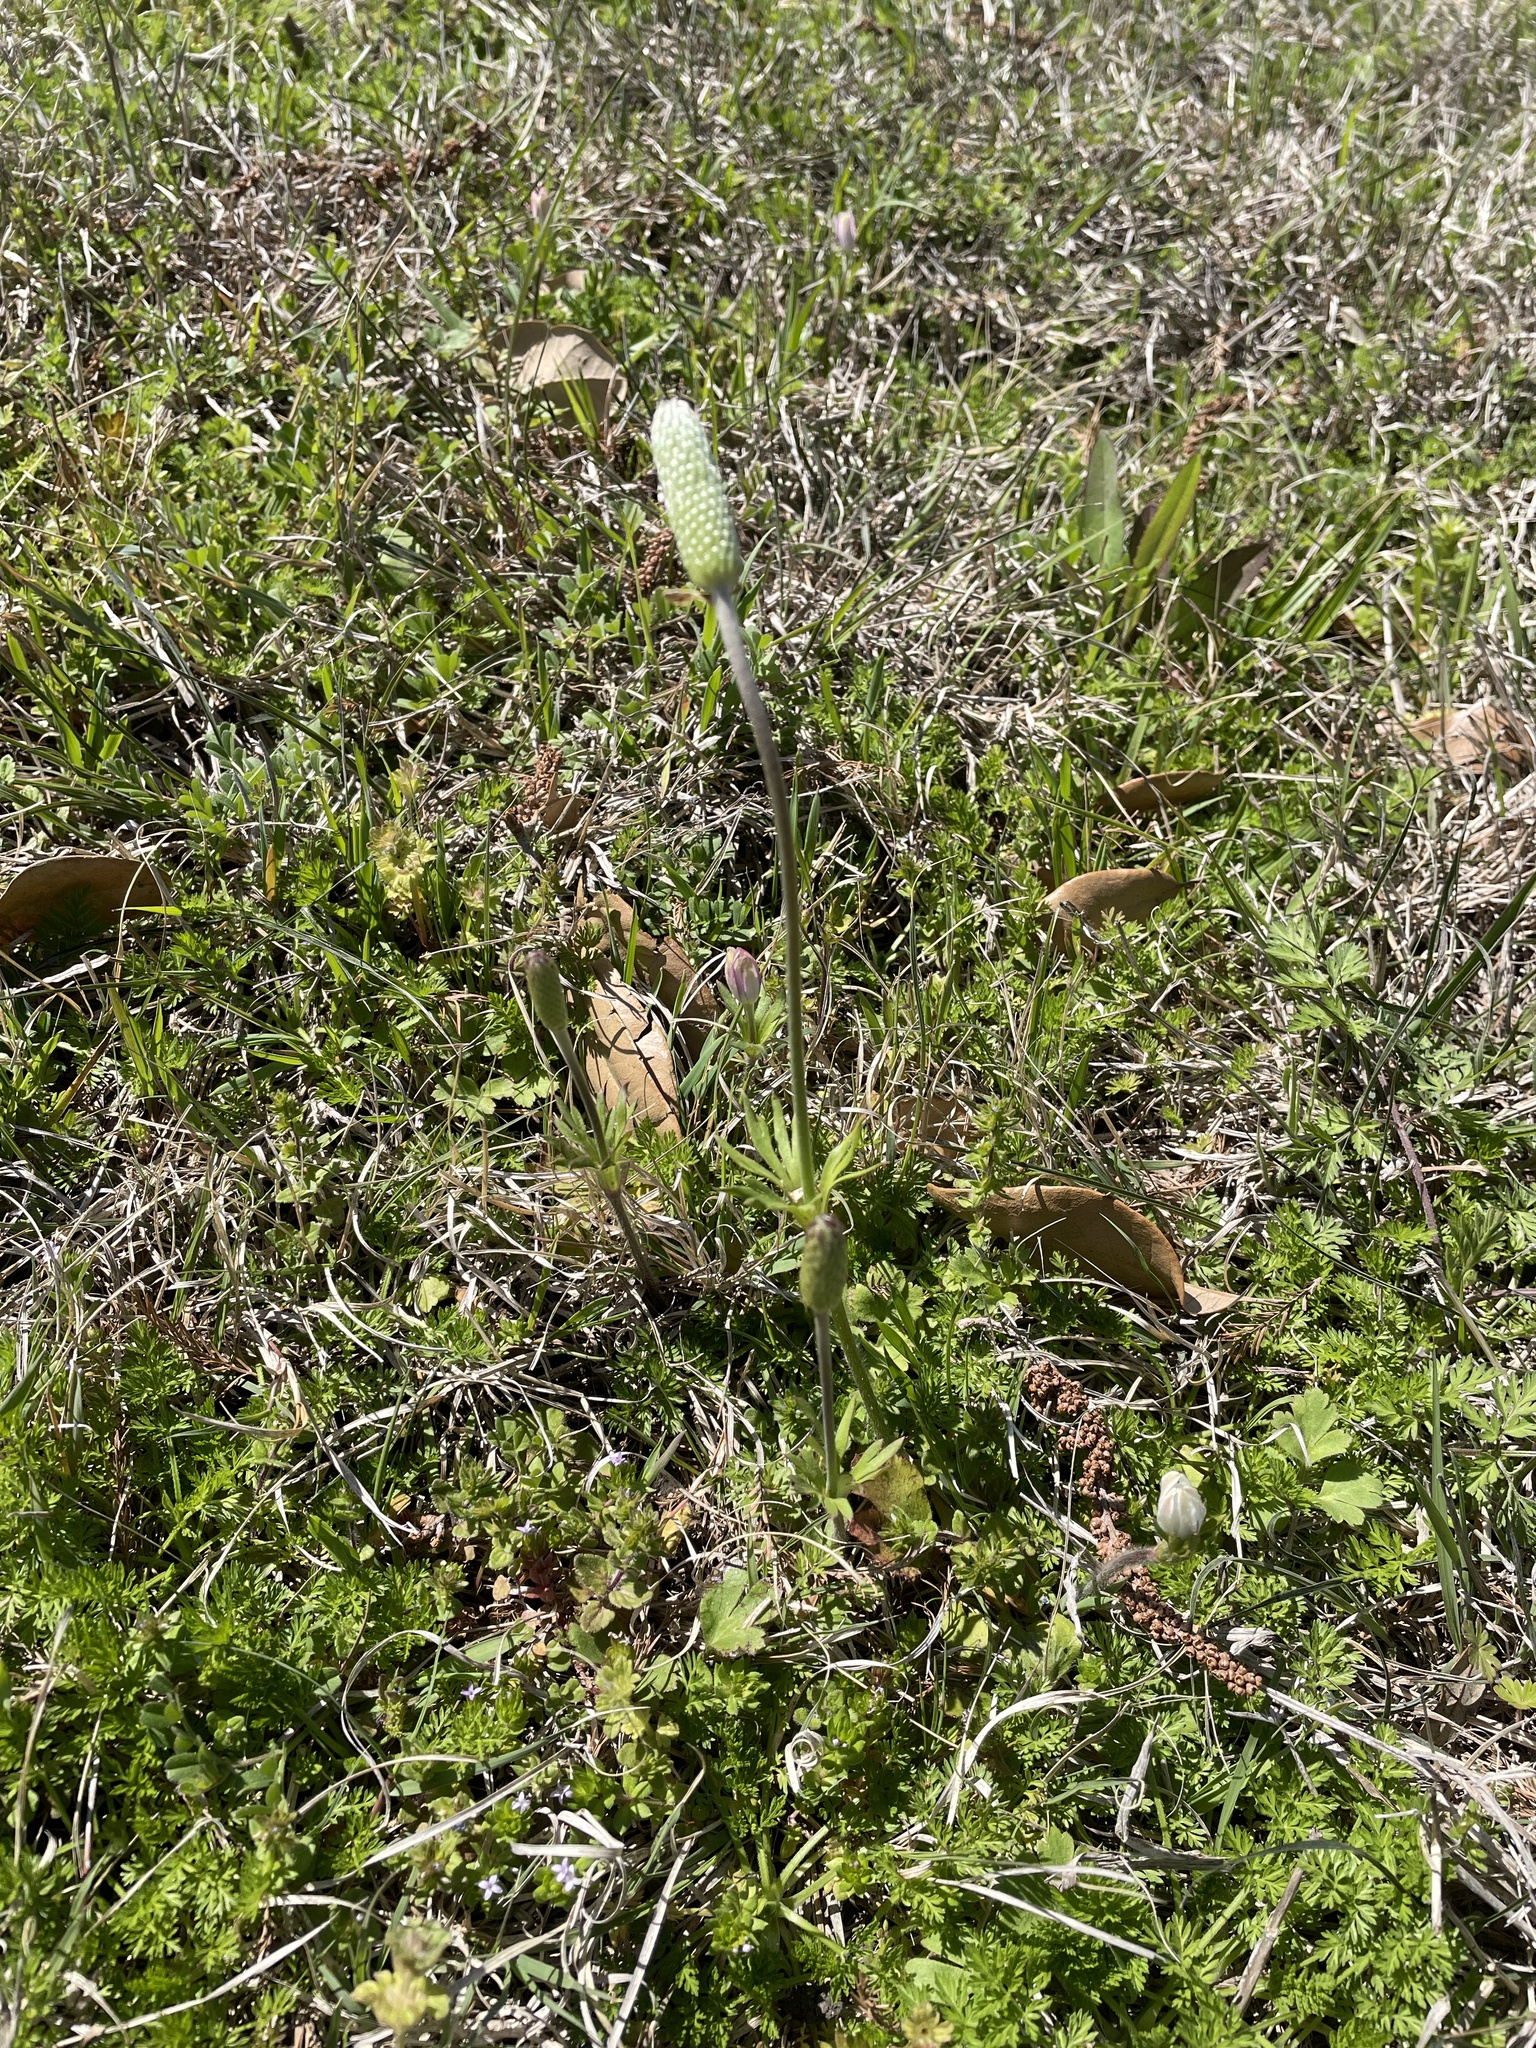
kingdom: Plantae
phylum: Tracheophyta
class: Magnoliopsida
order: Ranunculales
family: Ranunculaceae
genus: Anemone
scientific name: Anemone berlandieri
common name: Ten-petal anemone
